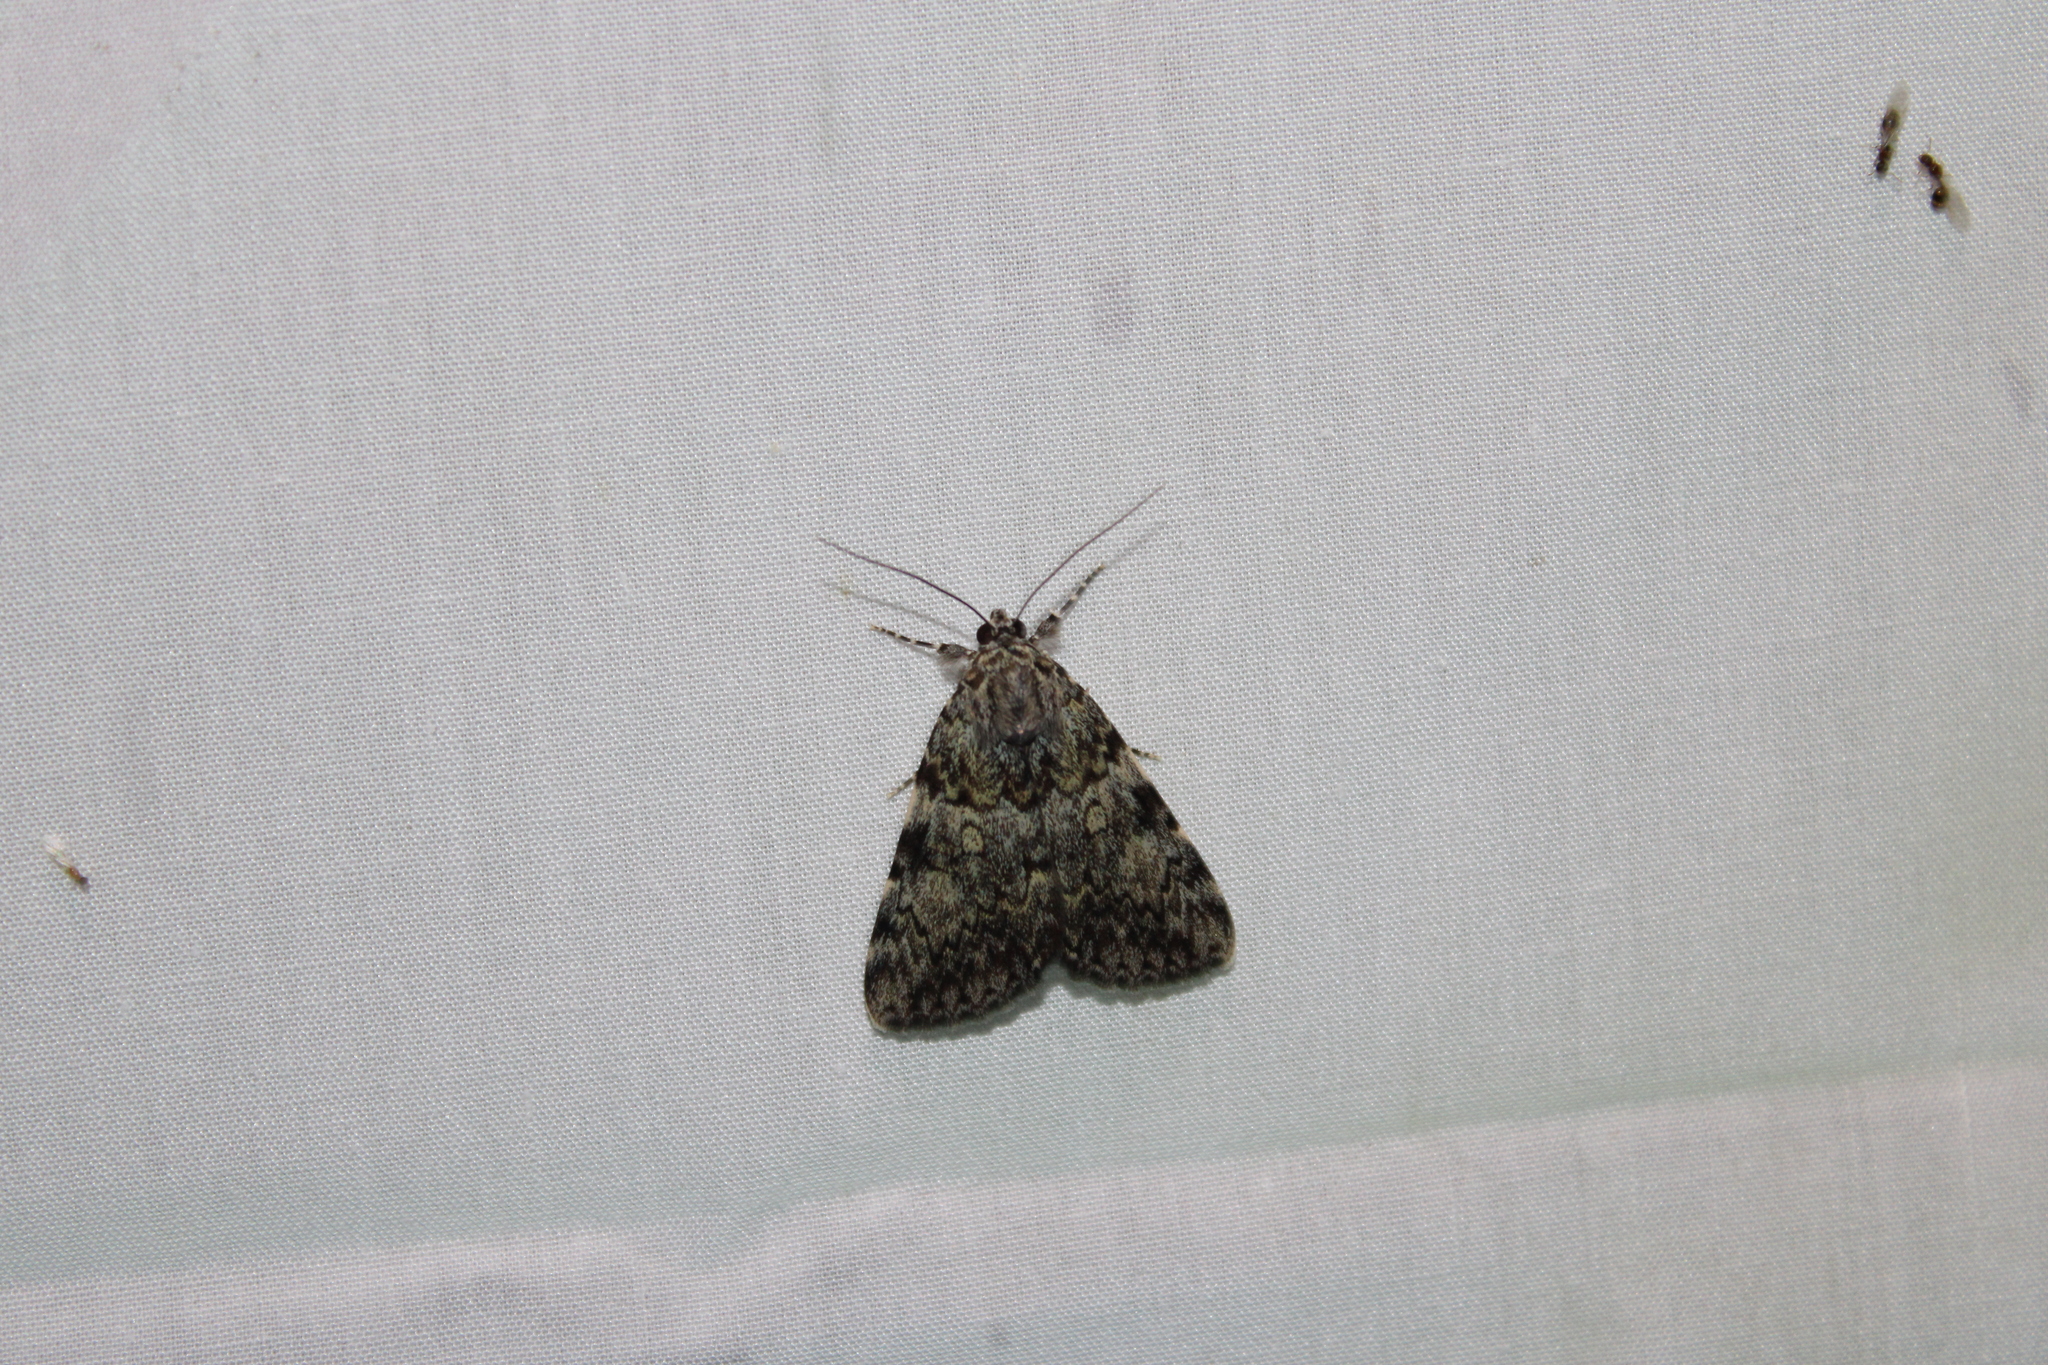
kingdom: Animalia
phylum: Arthropoda
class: Insecta
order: Lepidoptera
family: Erebidae
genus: Catocala
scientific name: Catocala lineella
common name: Little lined underwing
